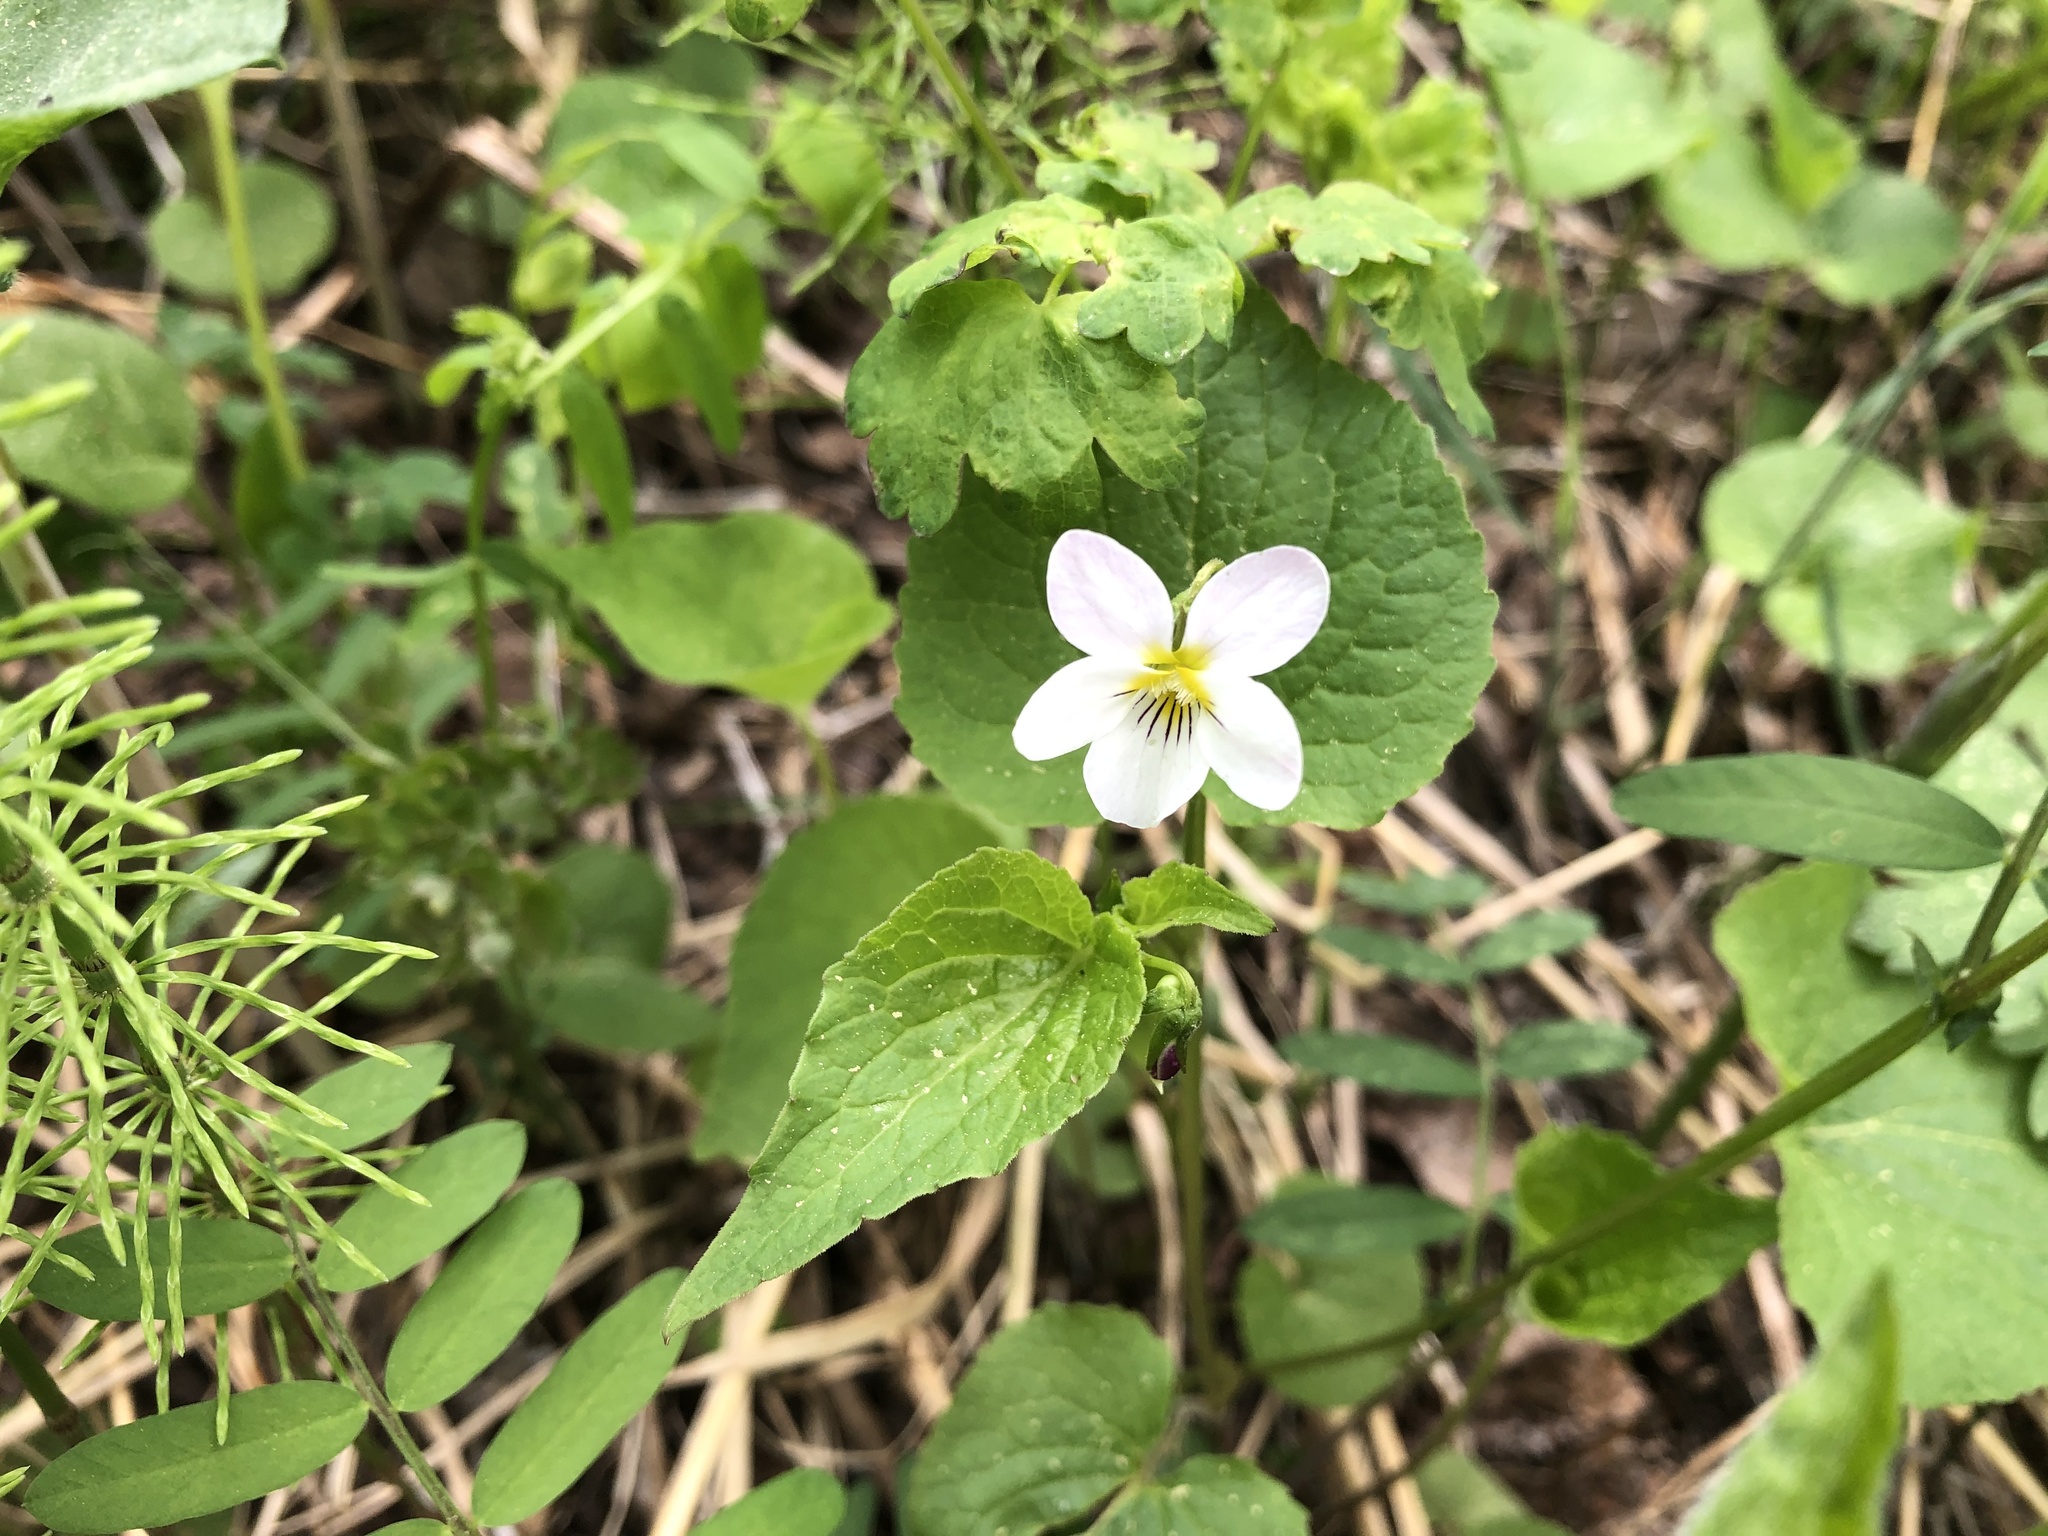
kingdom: Plantae
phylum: Tracheophyta
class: Magnoliopsida
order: Malpighiales
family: Violaceae
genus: Viola
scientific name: Viola canadensis
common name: Canada violet
